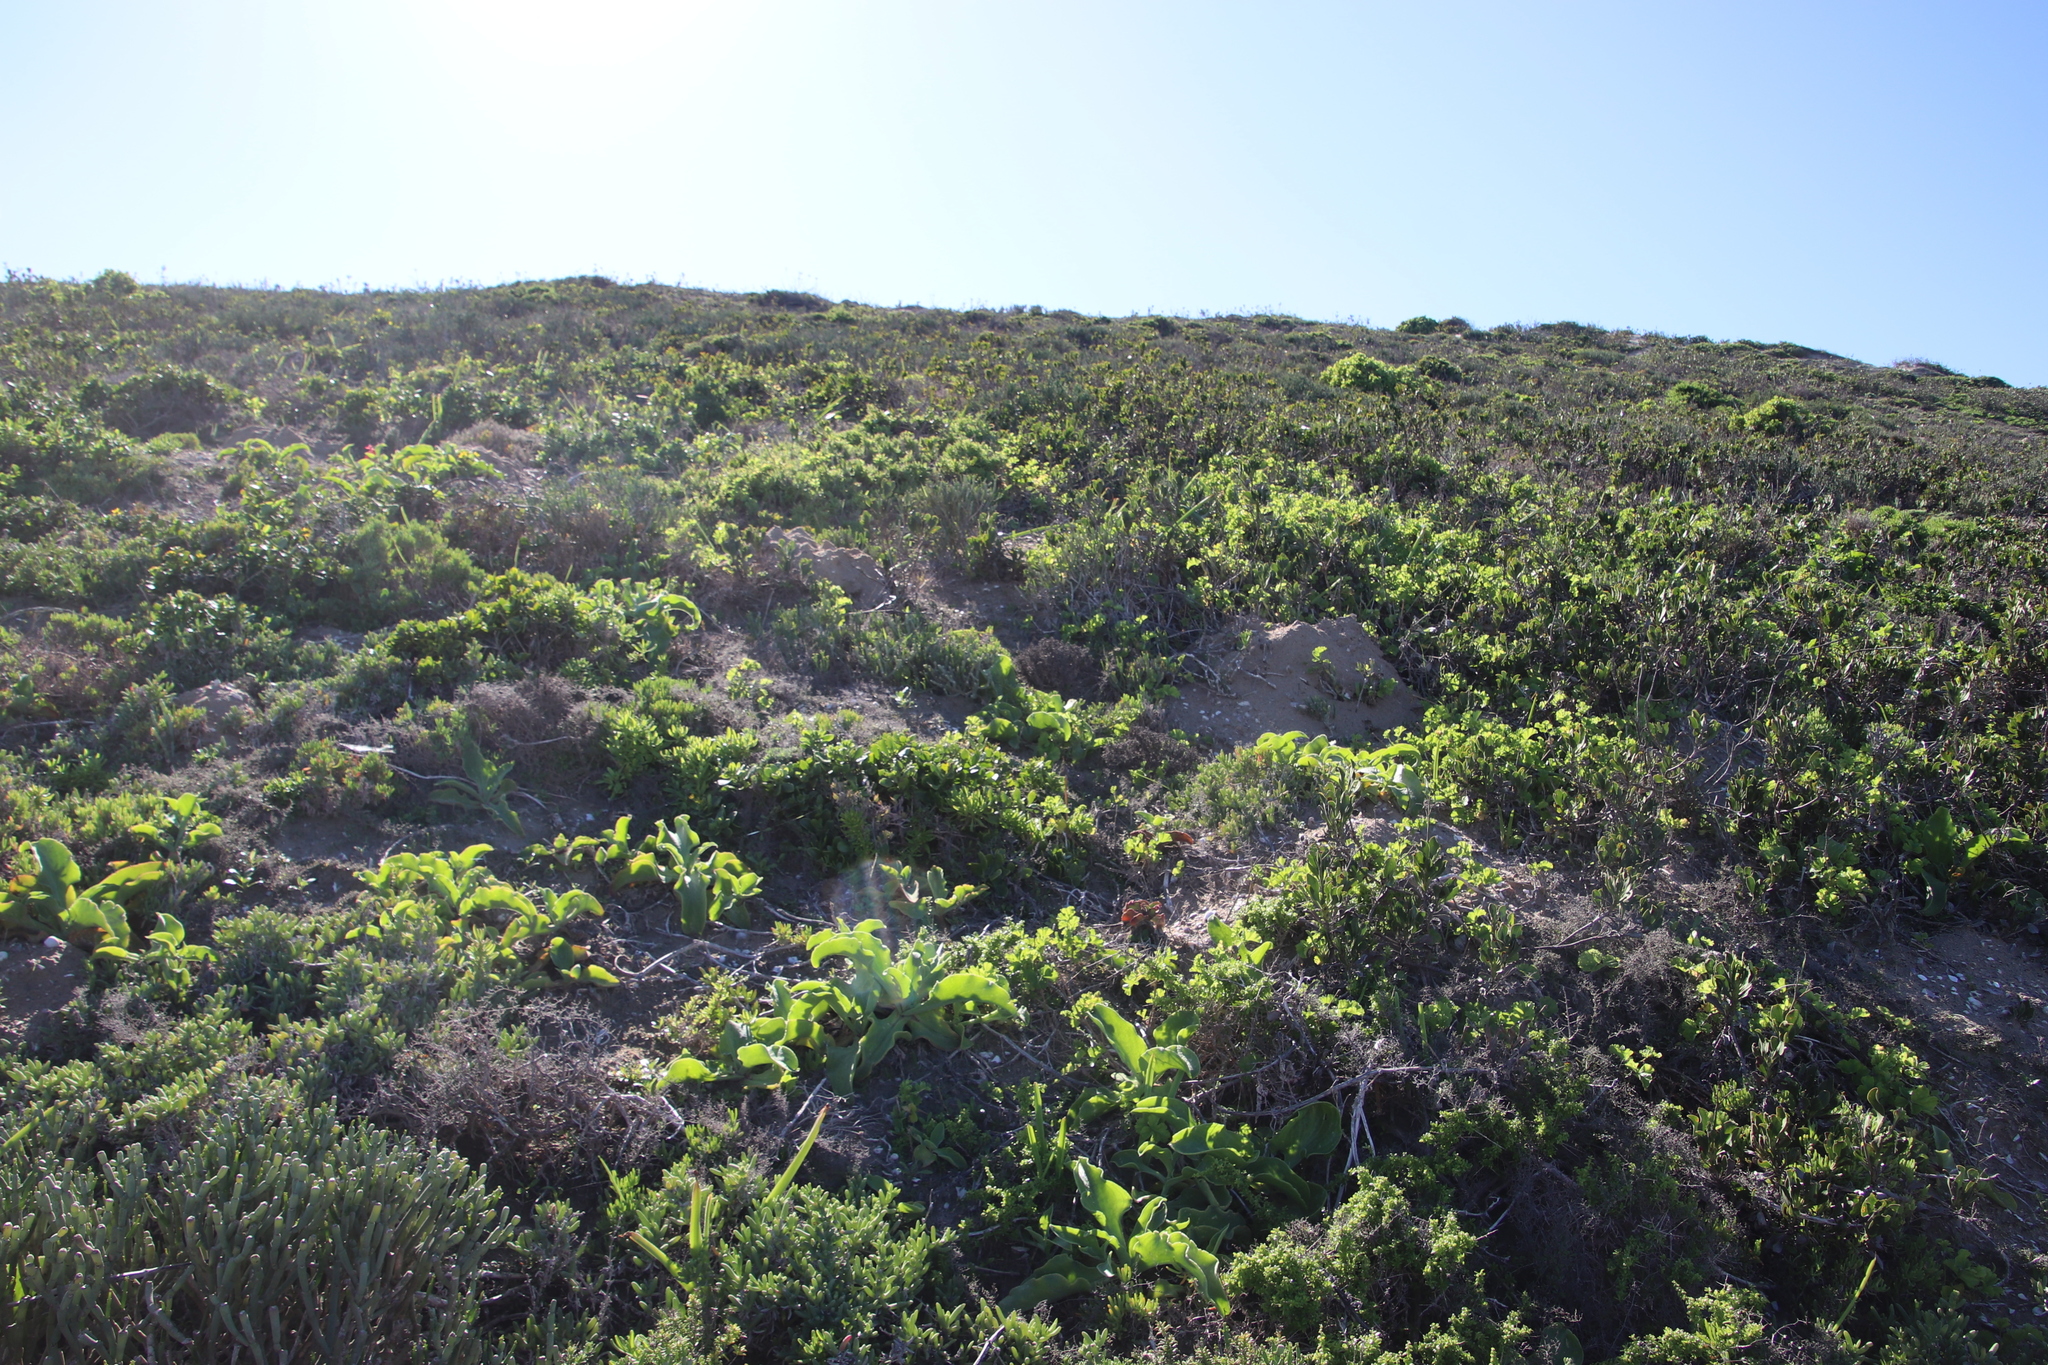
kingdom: Animalia
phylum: Chordata
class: Mammalia
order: Rodentia
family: Bathyergidae
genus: Bathyergus
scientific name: Bathyergus suillus
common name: Cape dune mole rat
